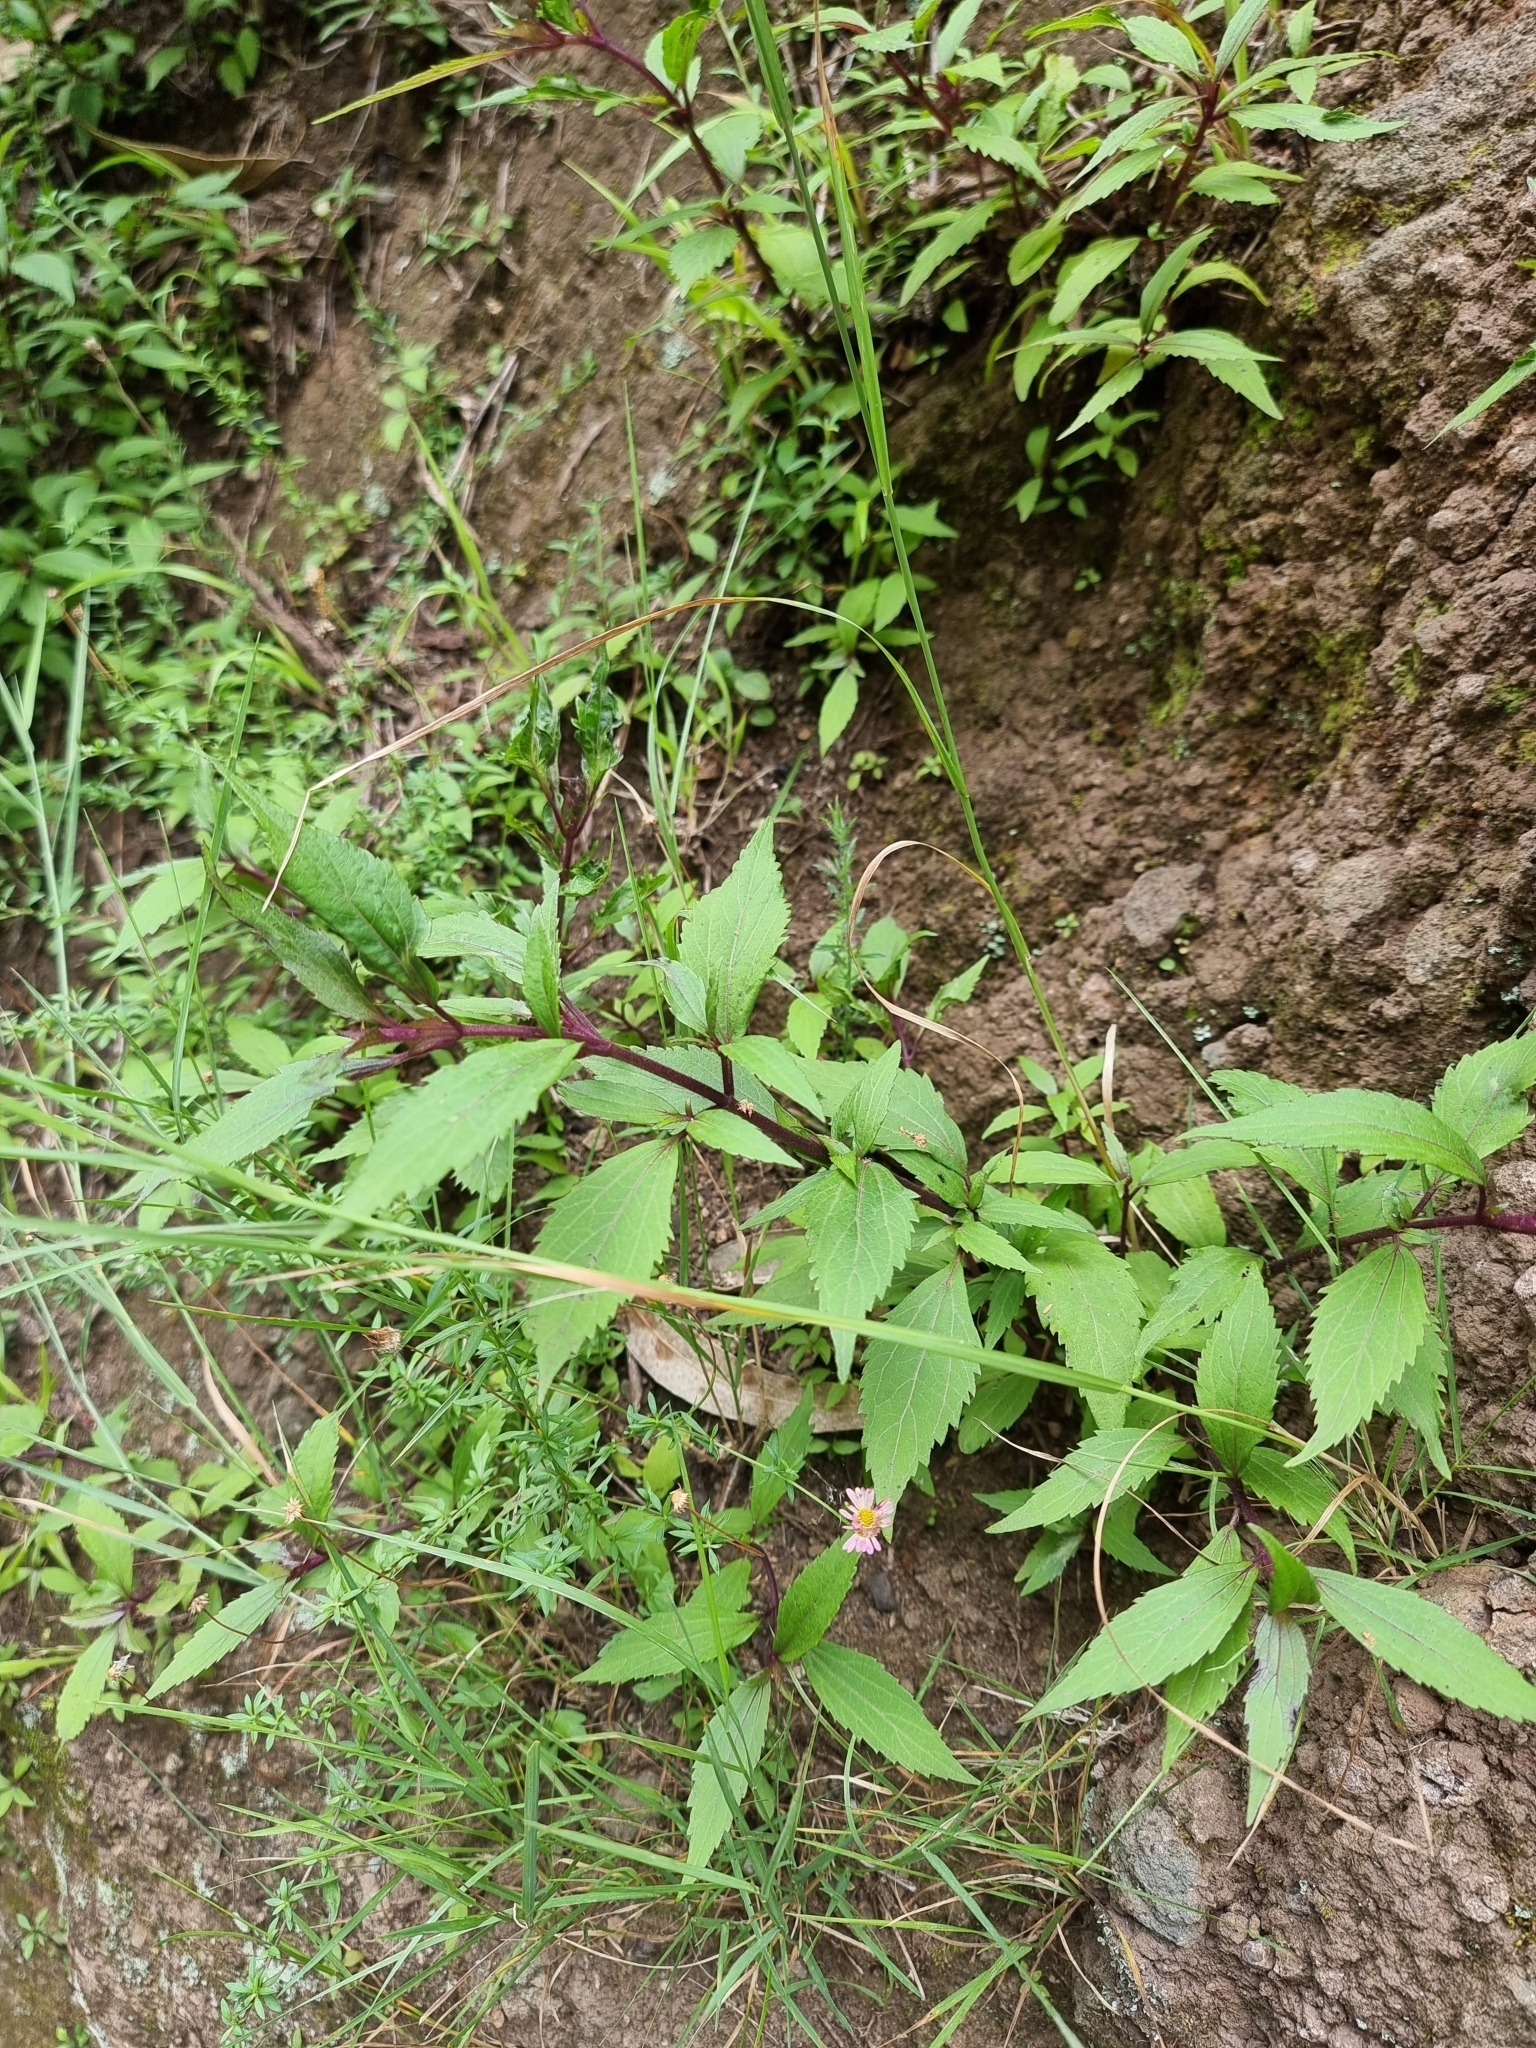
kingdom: Plantae
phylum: Tracheophyta
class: Magnoliopsida
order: Asterales
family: Asteraceae
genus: Ageratina
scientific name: Ageratina riparia
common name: Creeping croftonweed
